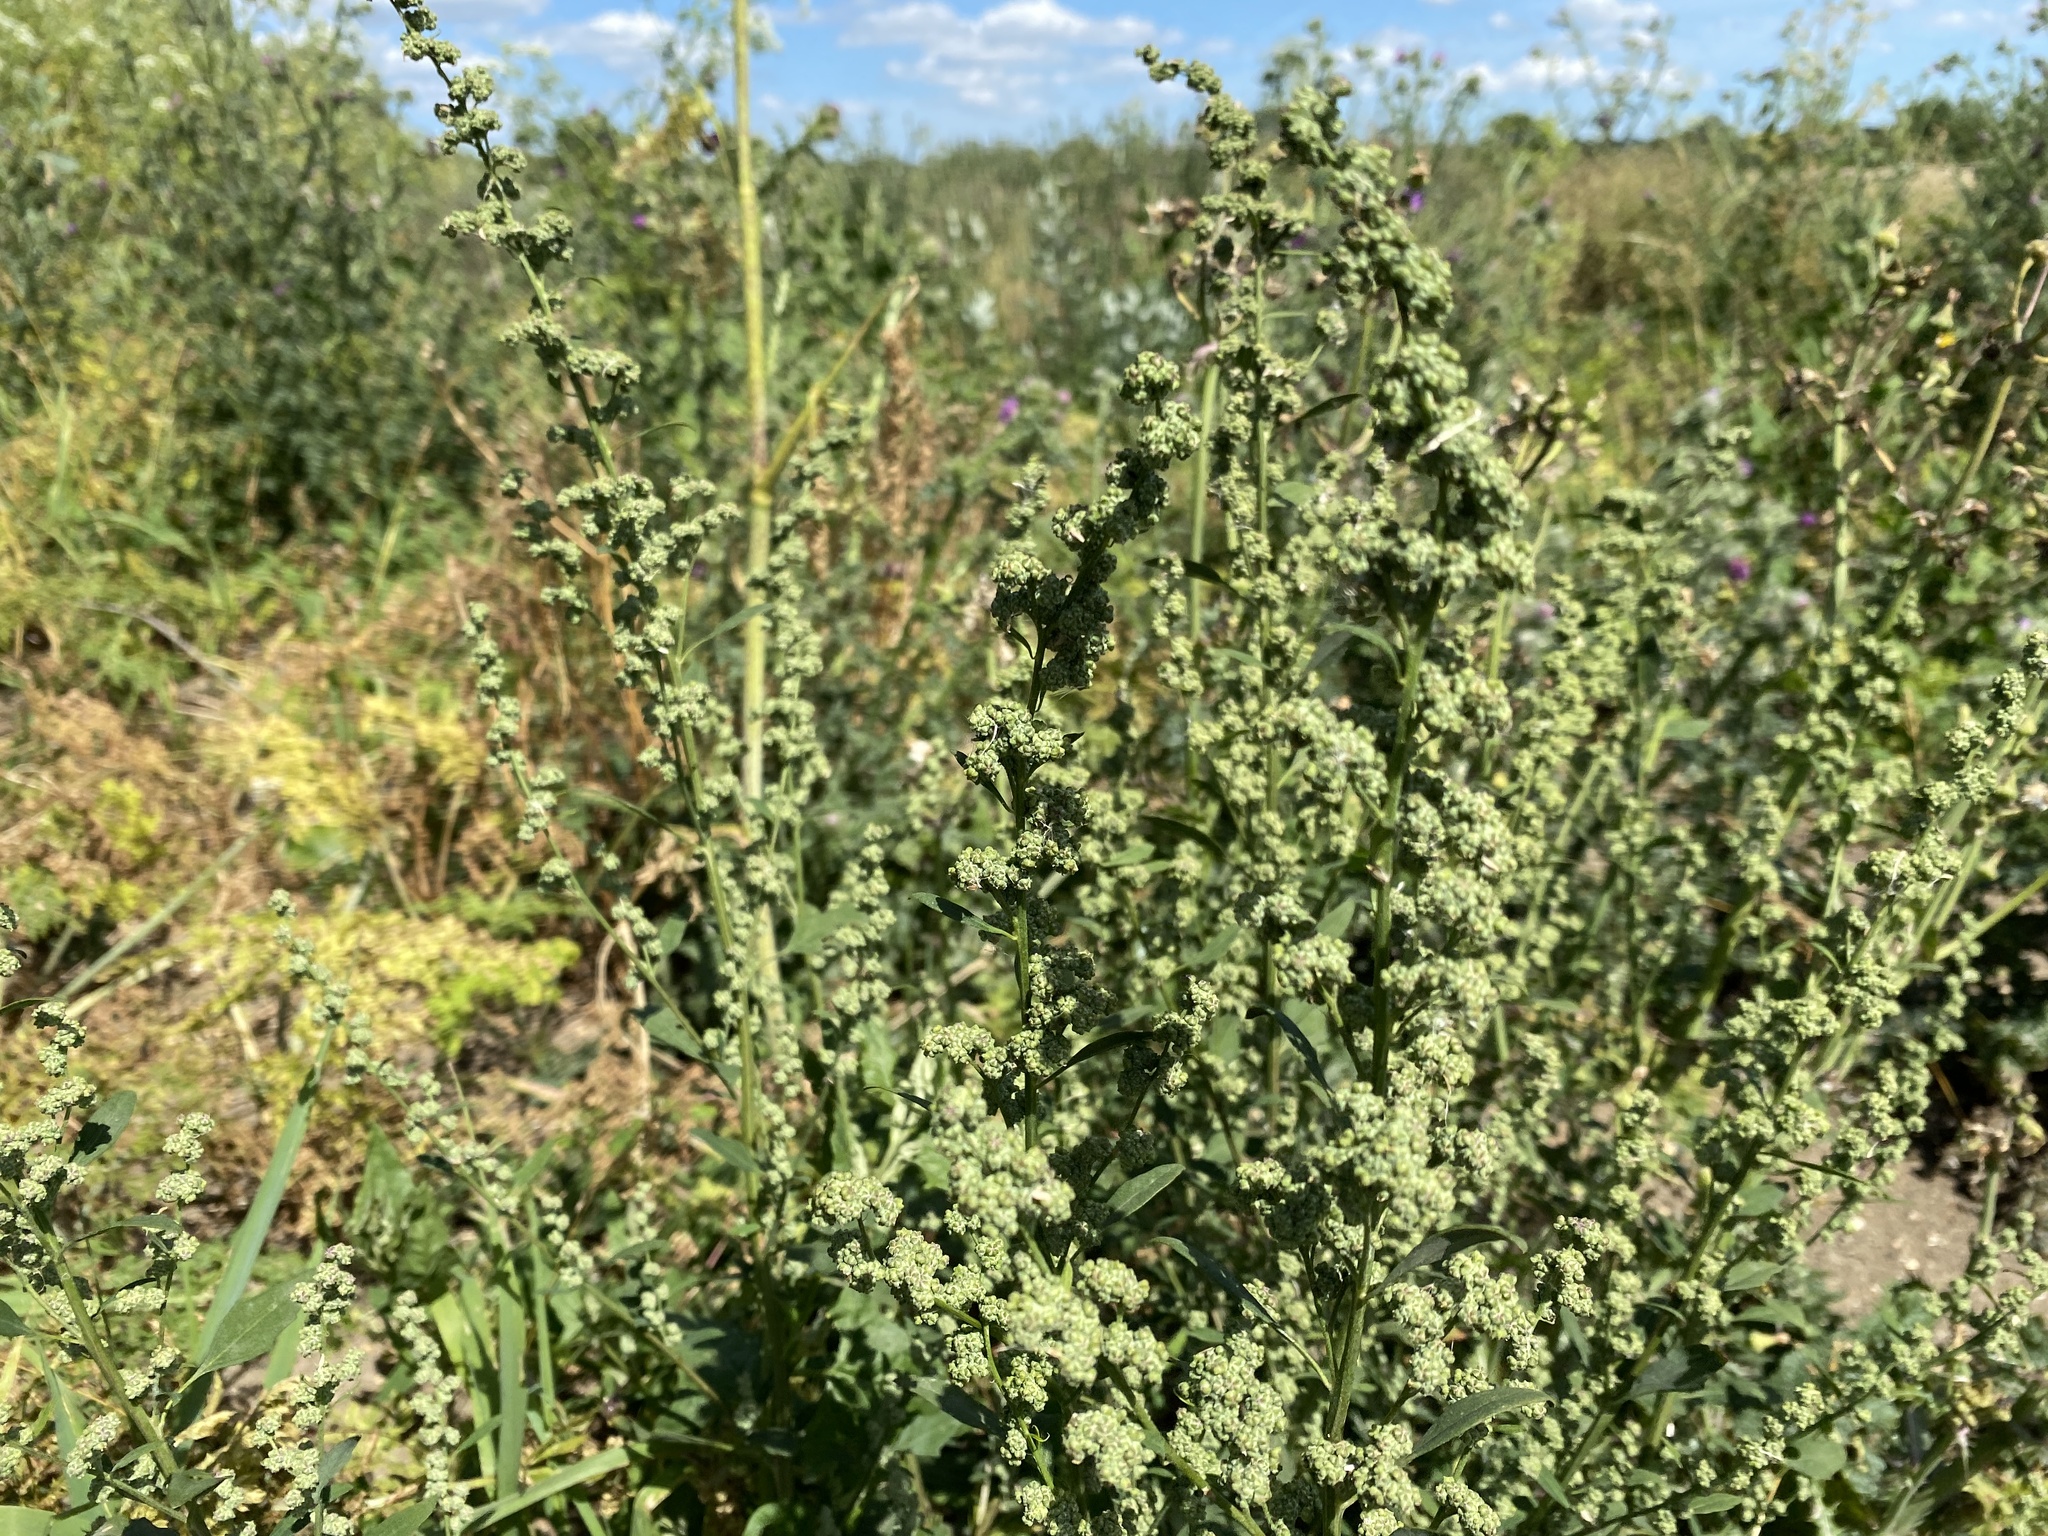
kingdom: Plantae
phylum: Tracheophyta
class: Magnoliopsida
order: Caryophyllales
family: Amaranthaceae
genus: Chenopodium
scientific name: Chenopodium album
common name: Fat-hen
